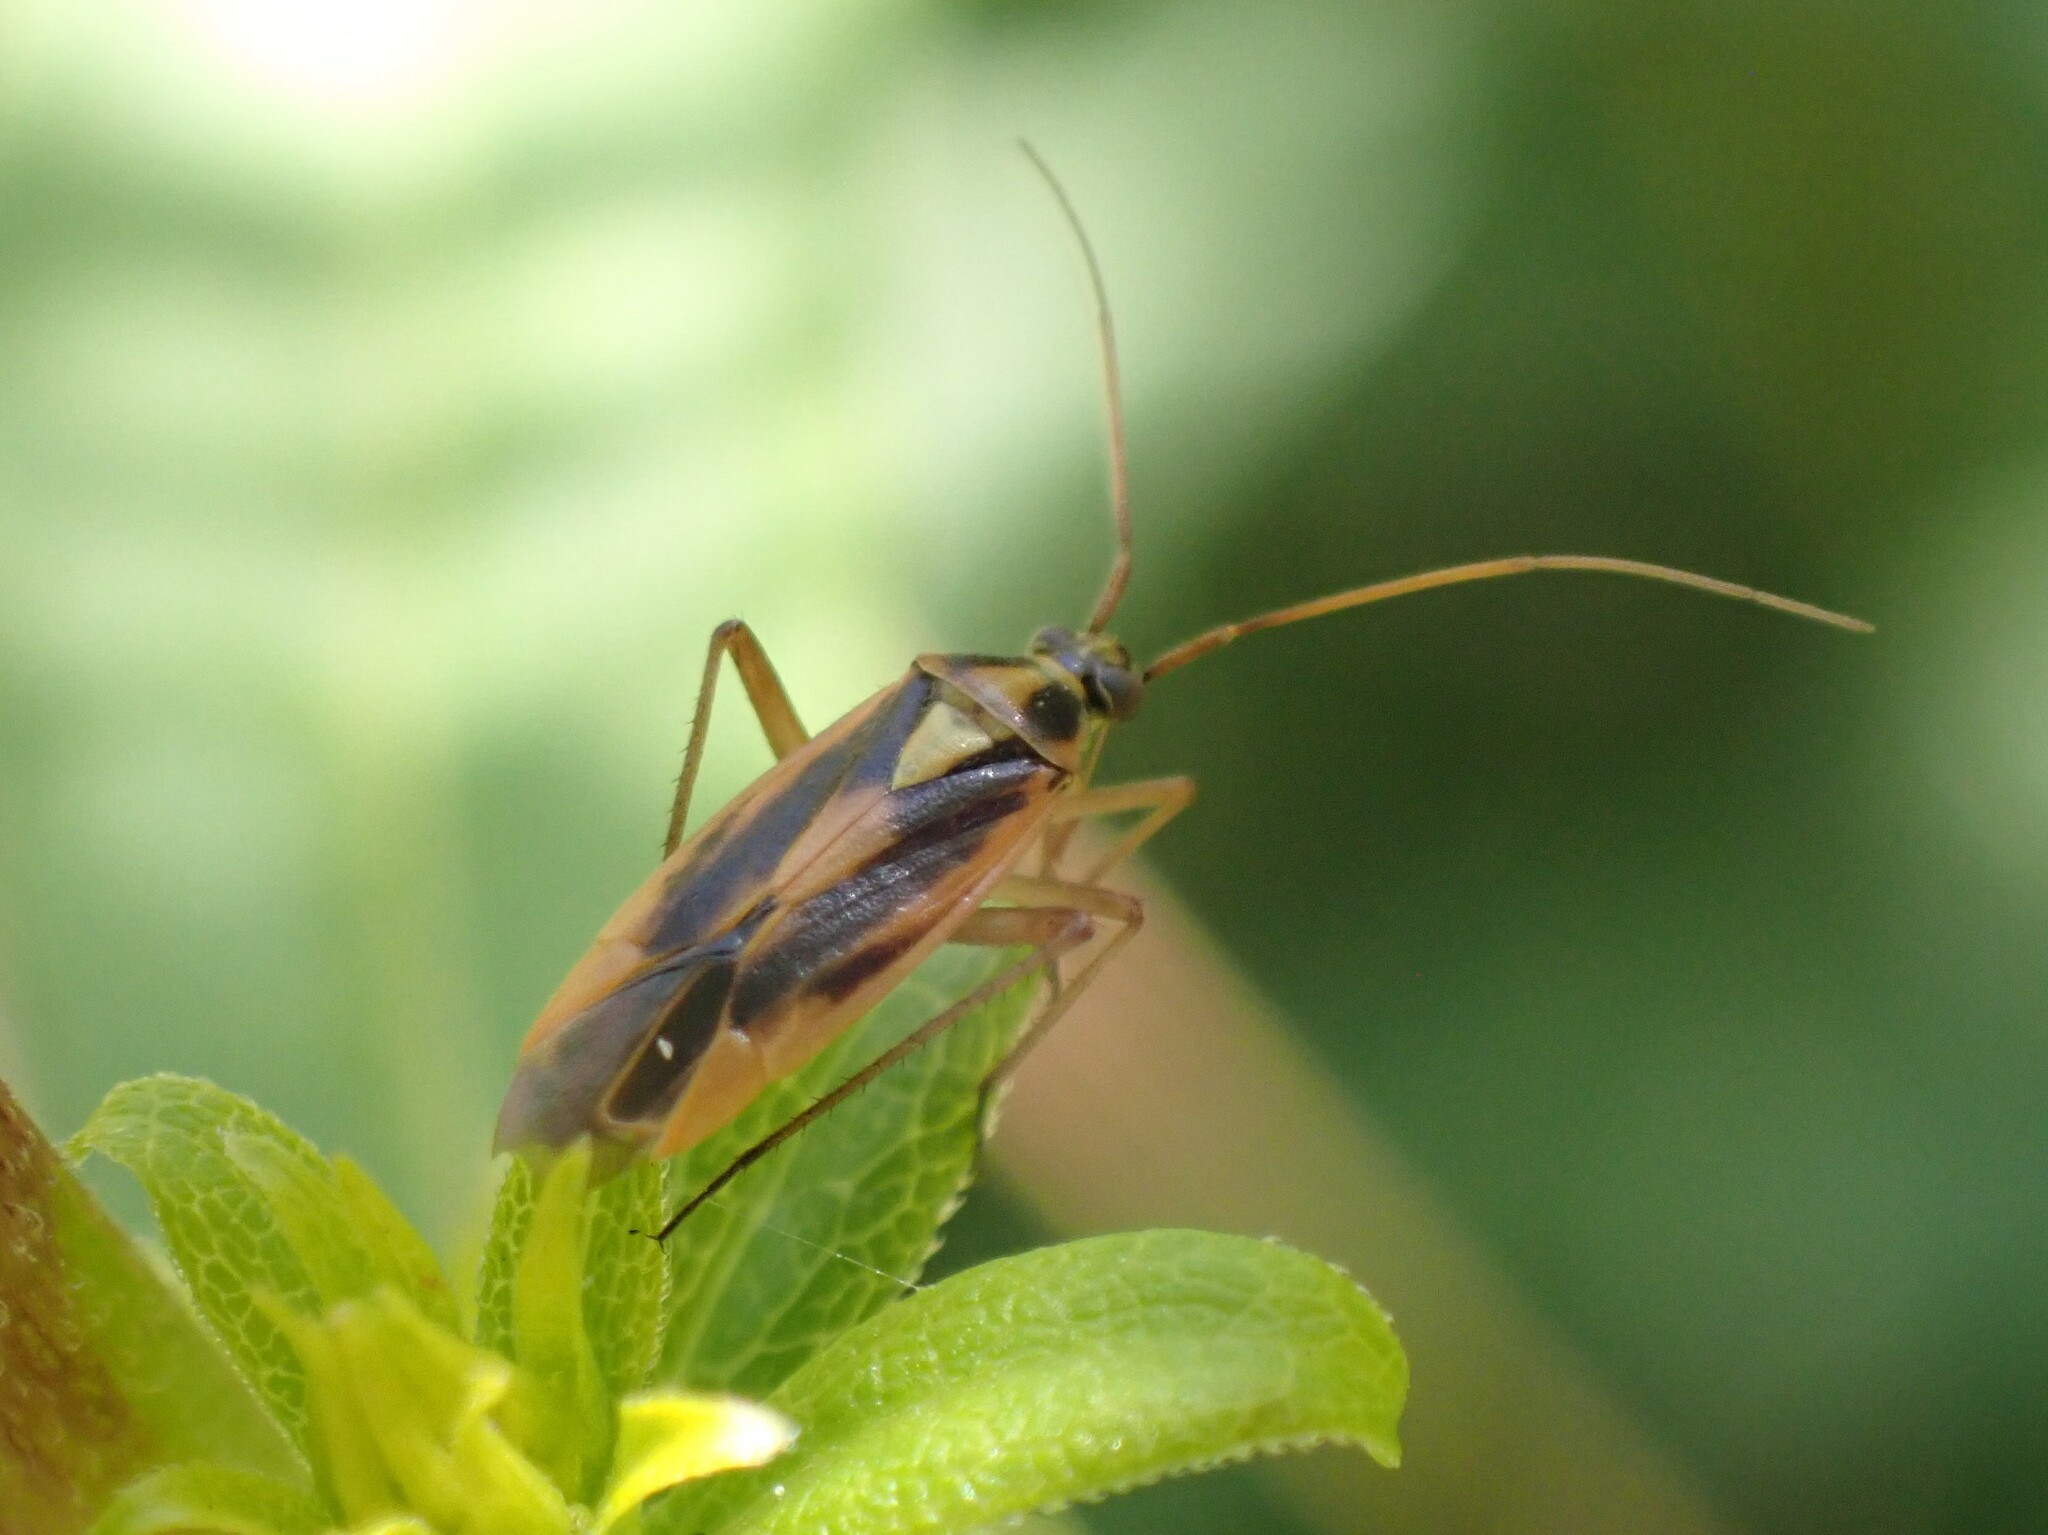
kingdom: Animalia
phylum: Arthropoda
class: Insecta
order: Hemiptera
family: Miridae
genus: Stenotus
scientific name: Stenotus binotatus
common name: Plant bug
